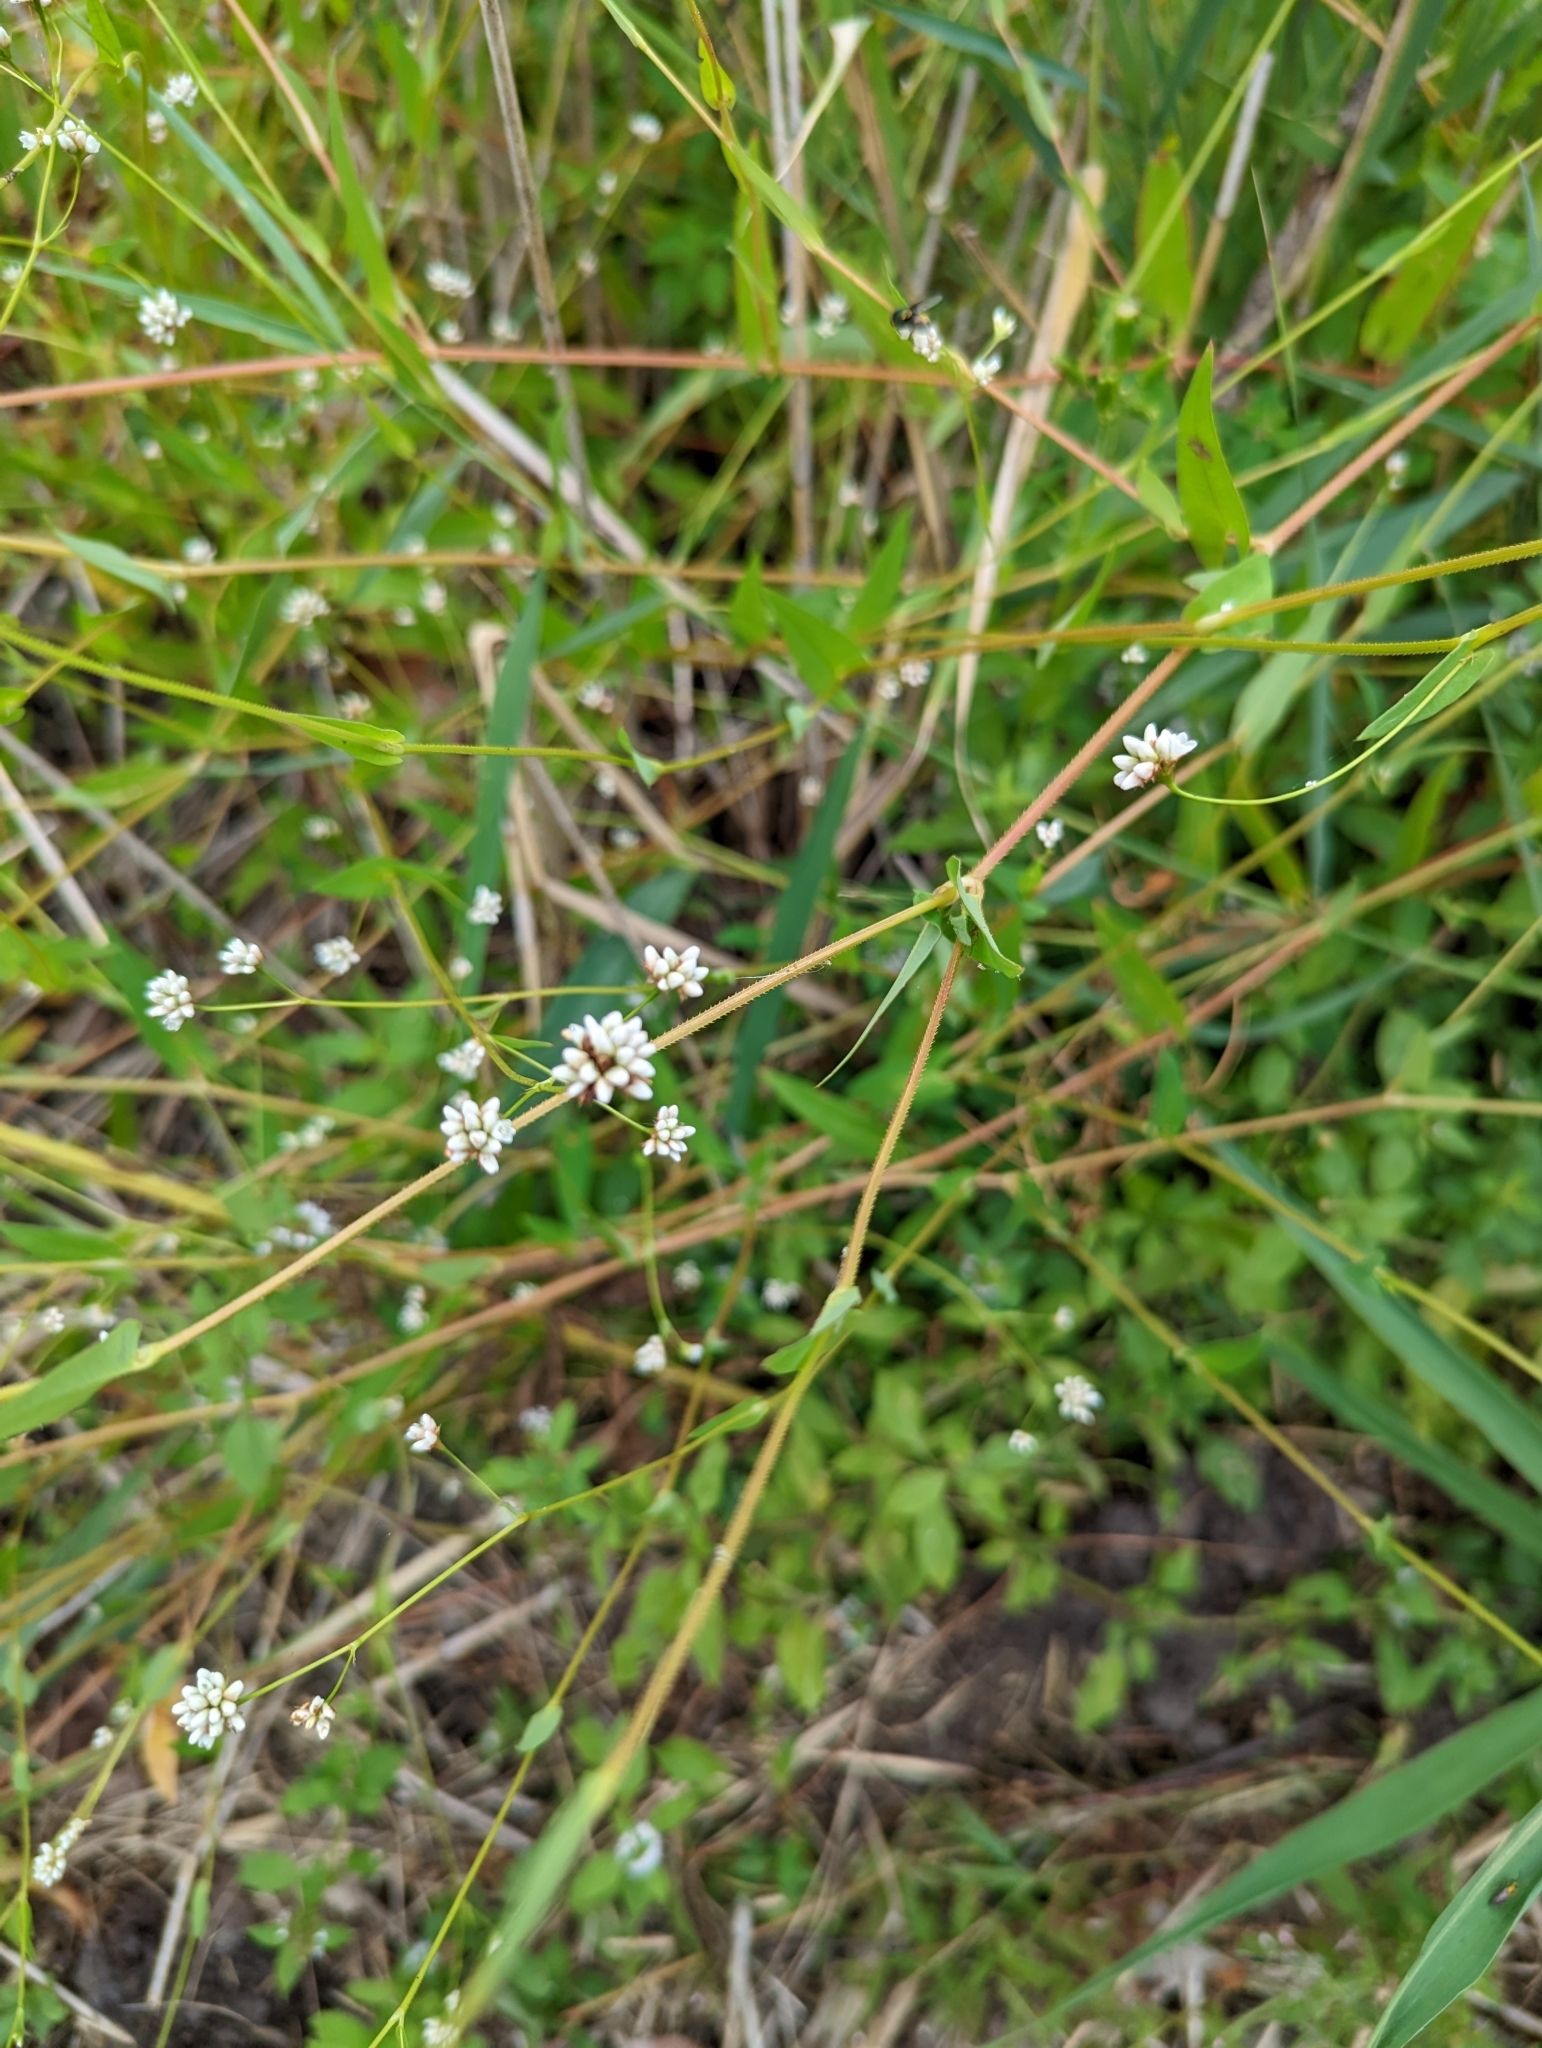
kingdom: Plantae
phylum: Tracheophyta
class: Magnoliopsida
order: Caryophyllales
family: Polygonaceae
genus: Persicaria
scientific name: Persicaria sagittata
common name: American tearthumb
